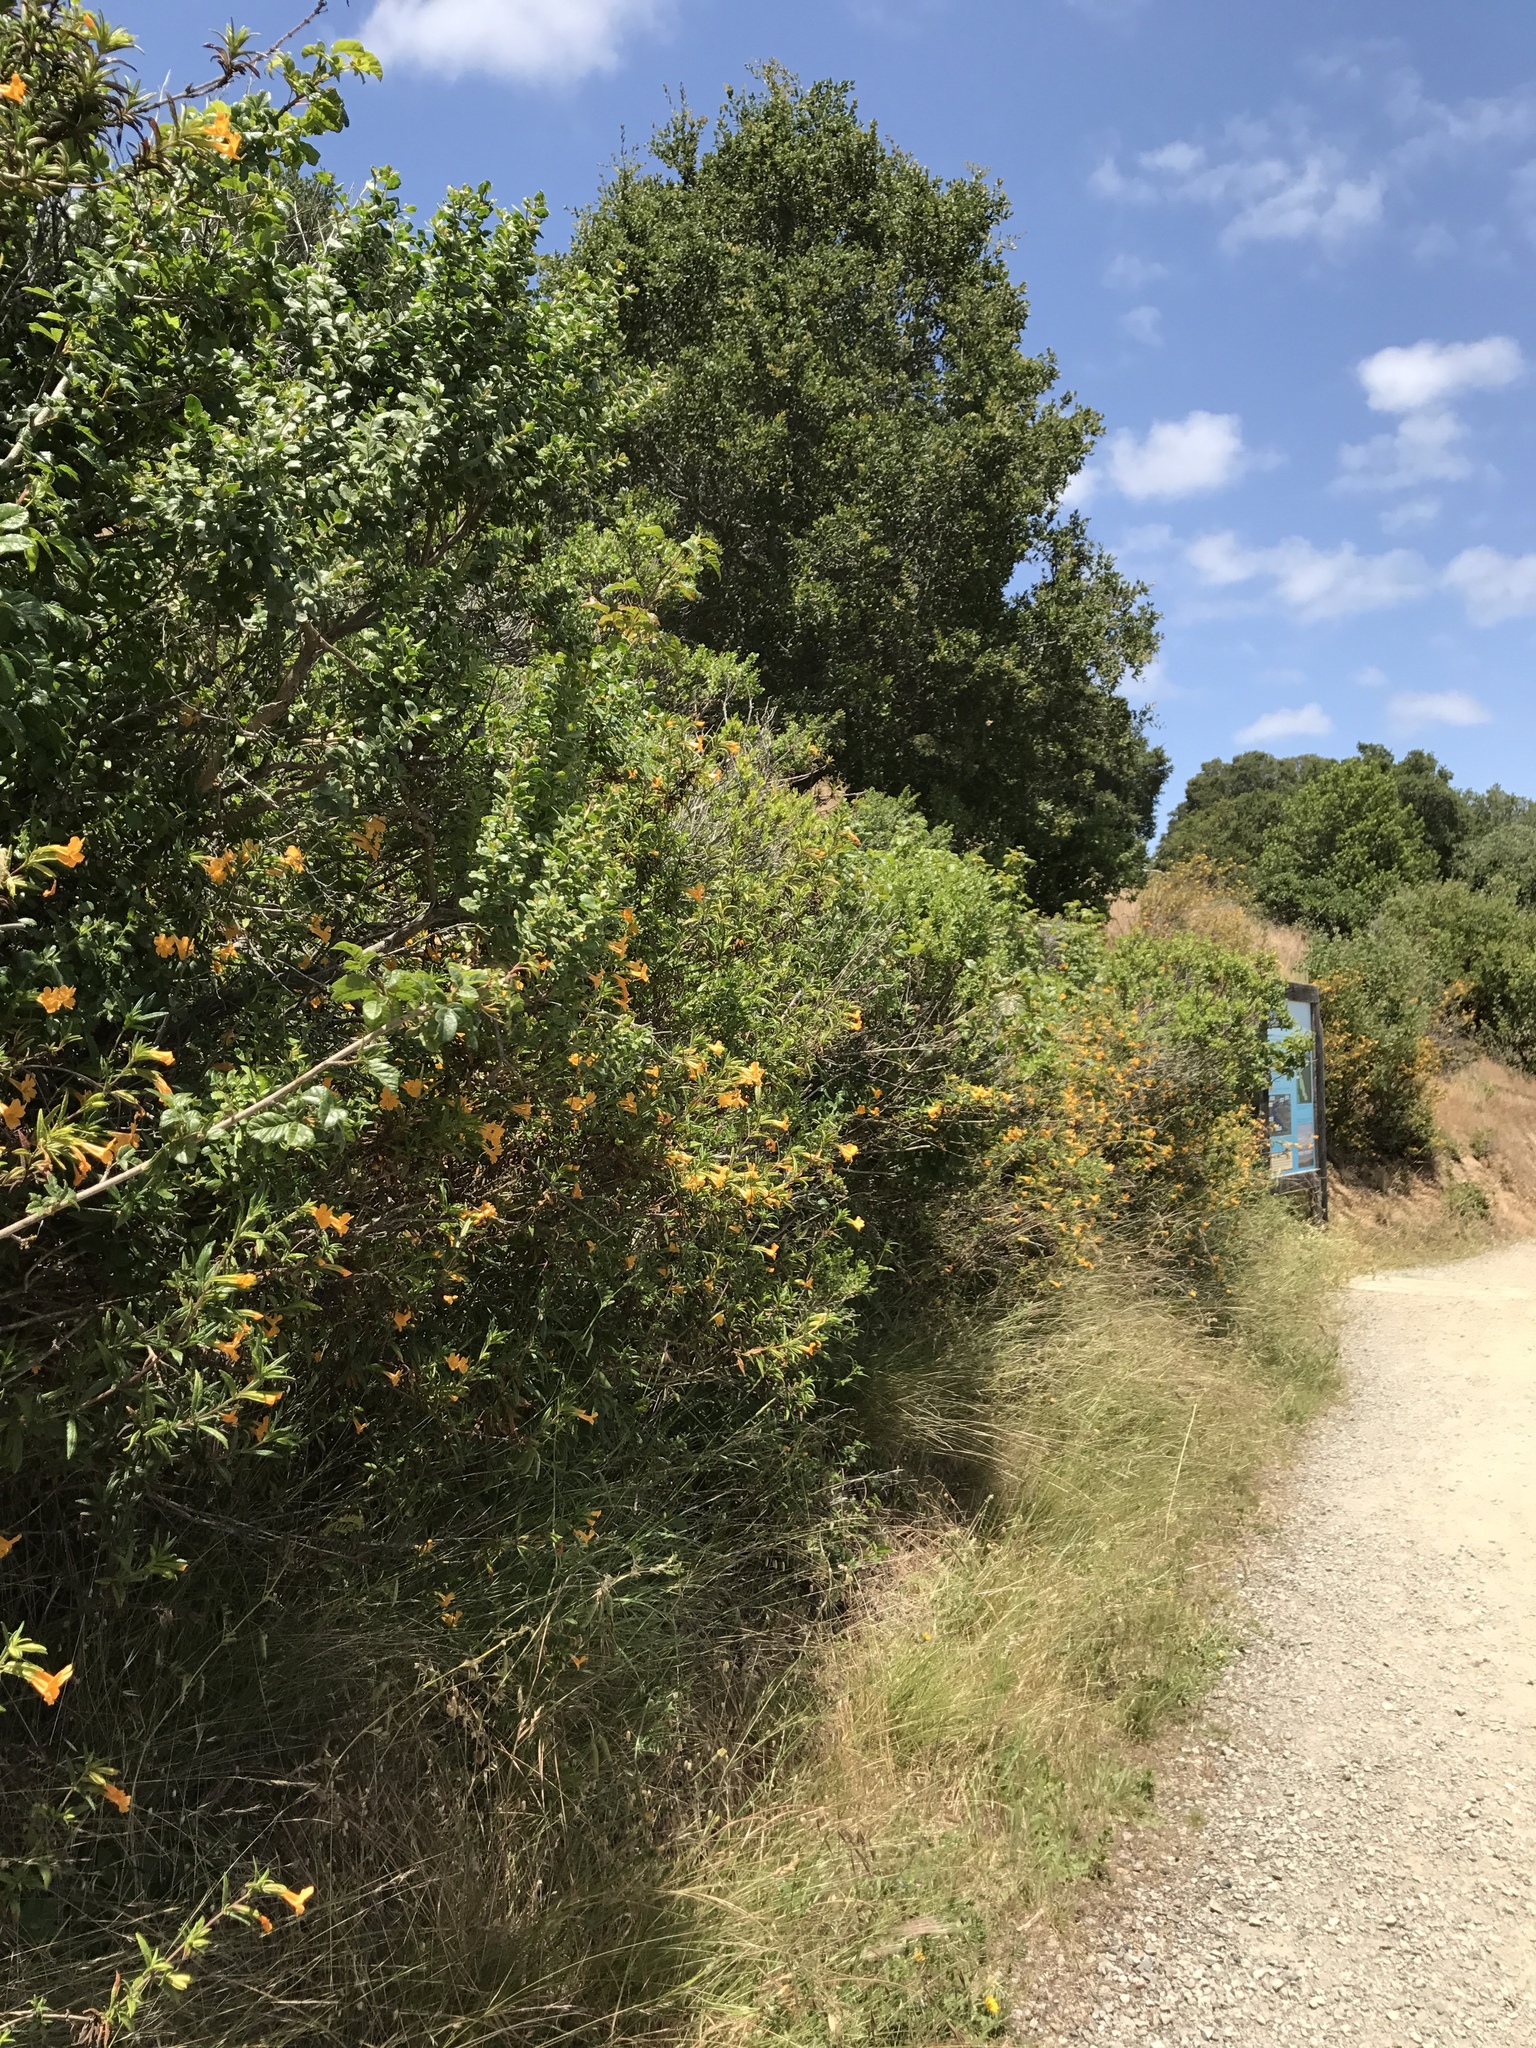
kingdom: Plantae
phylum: Tracheophyta
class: Magnoliopsida
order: Lamiales
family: Phrymaceae
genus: Diplacus
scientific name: Diplacus aurantiacus
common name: Bush monkey-flower
